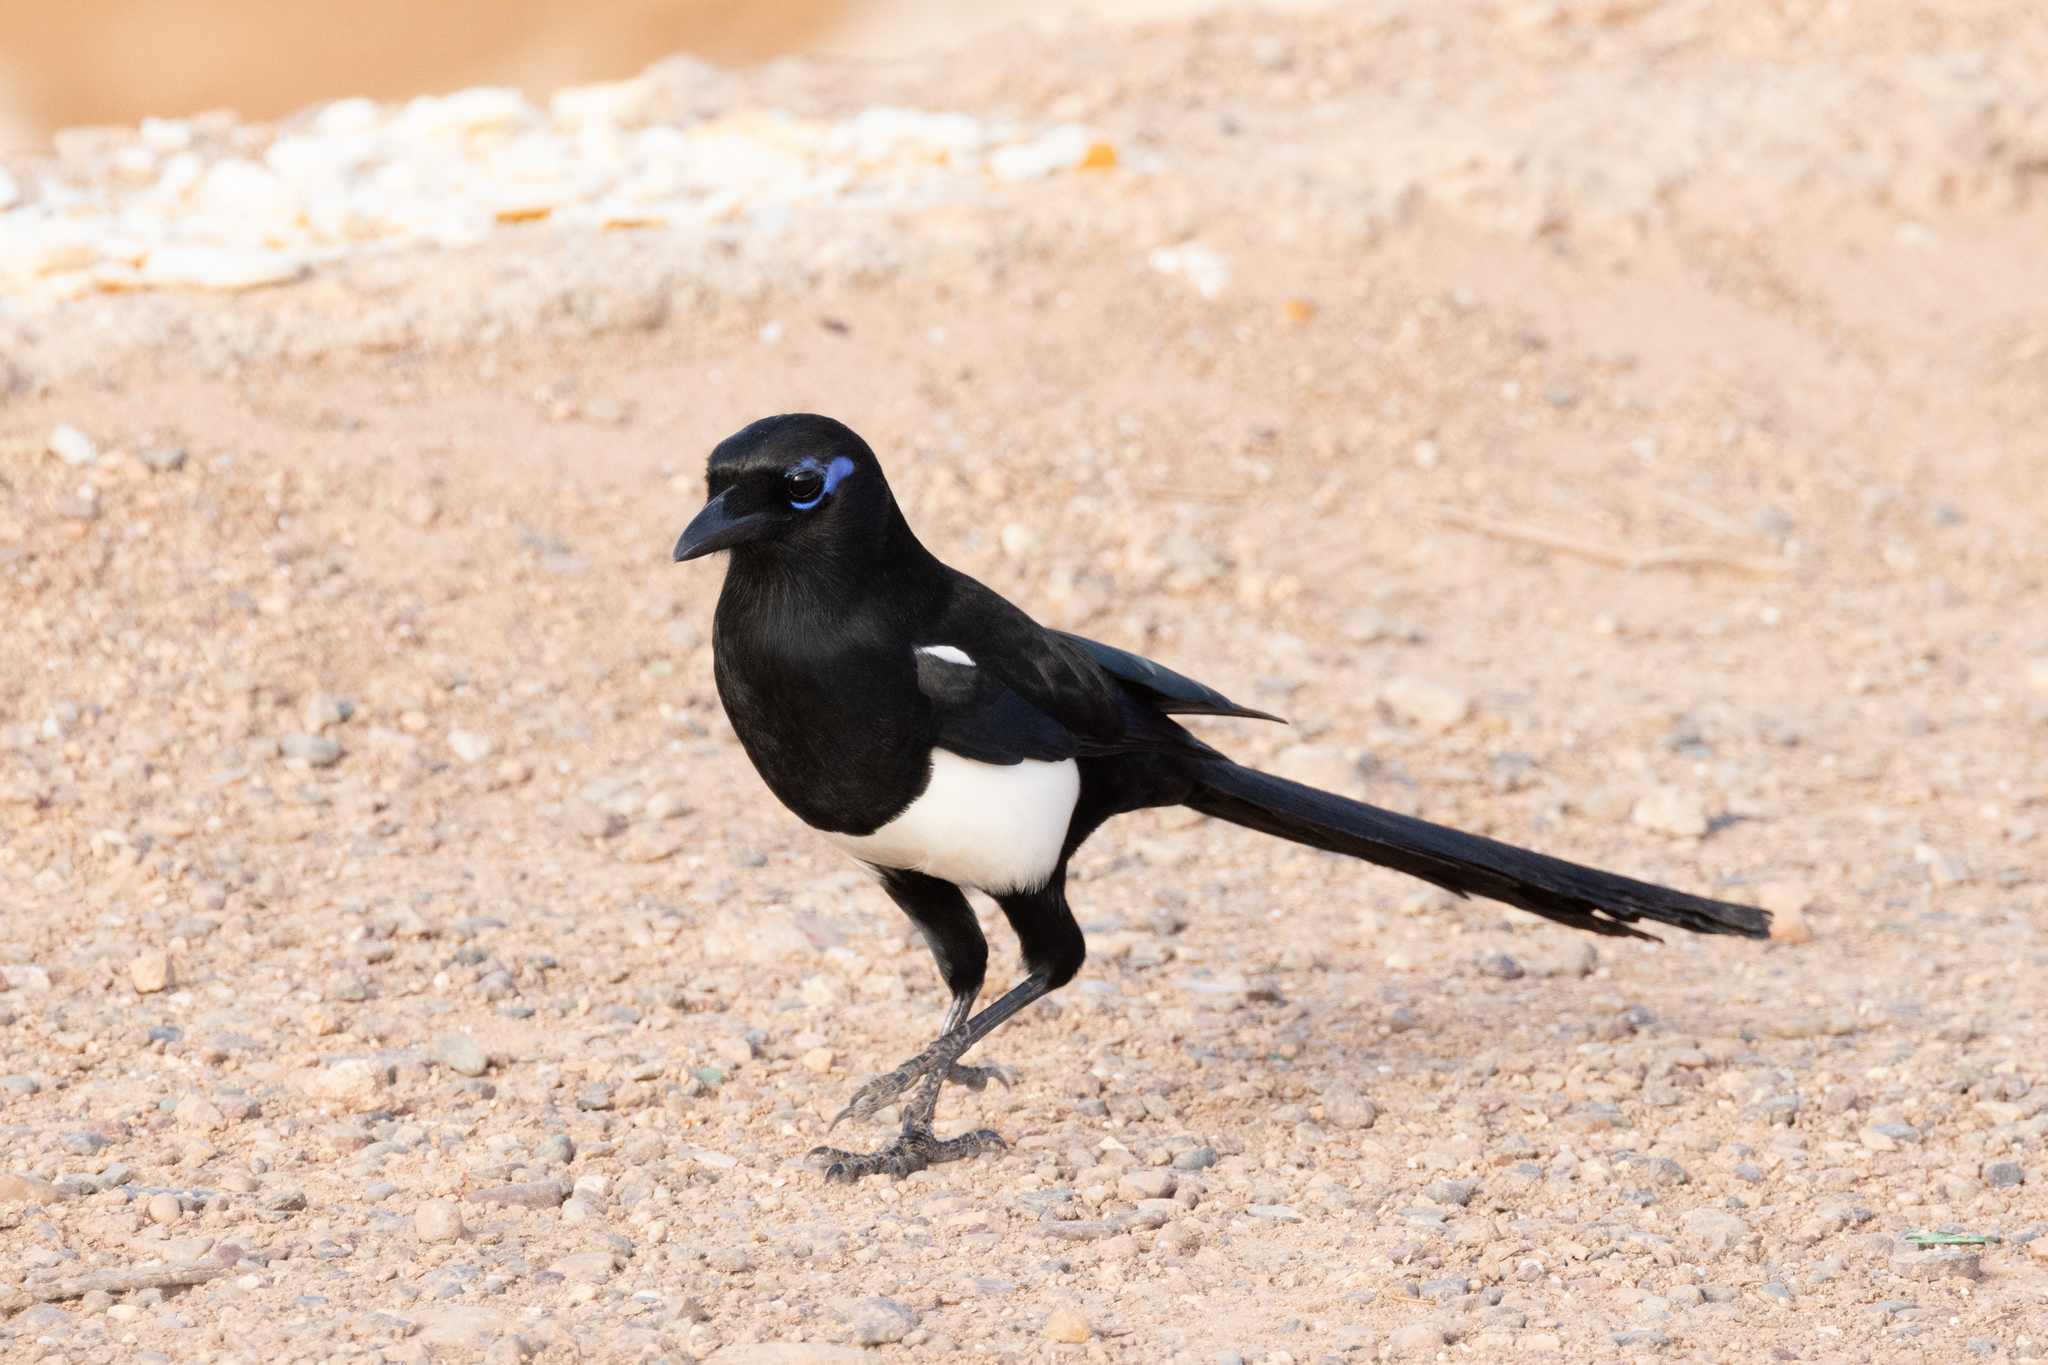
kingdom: Animalia
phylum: Chordata
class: Aves
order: Passeriformes
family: Corvidae
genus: Pica
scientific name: Pica mauritanica
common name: Maghreb magpie
